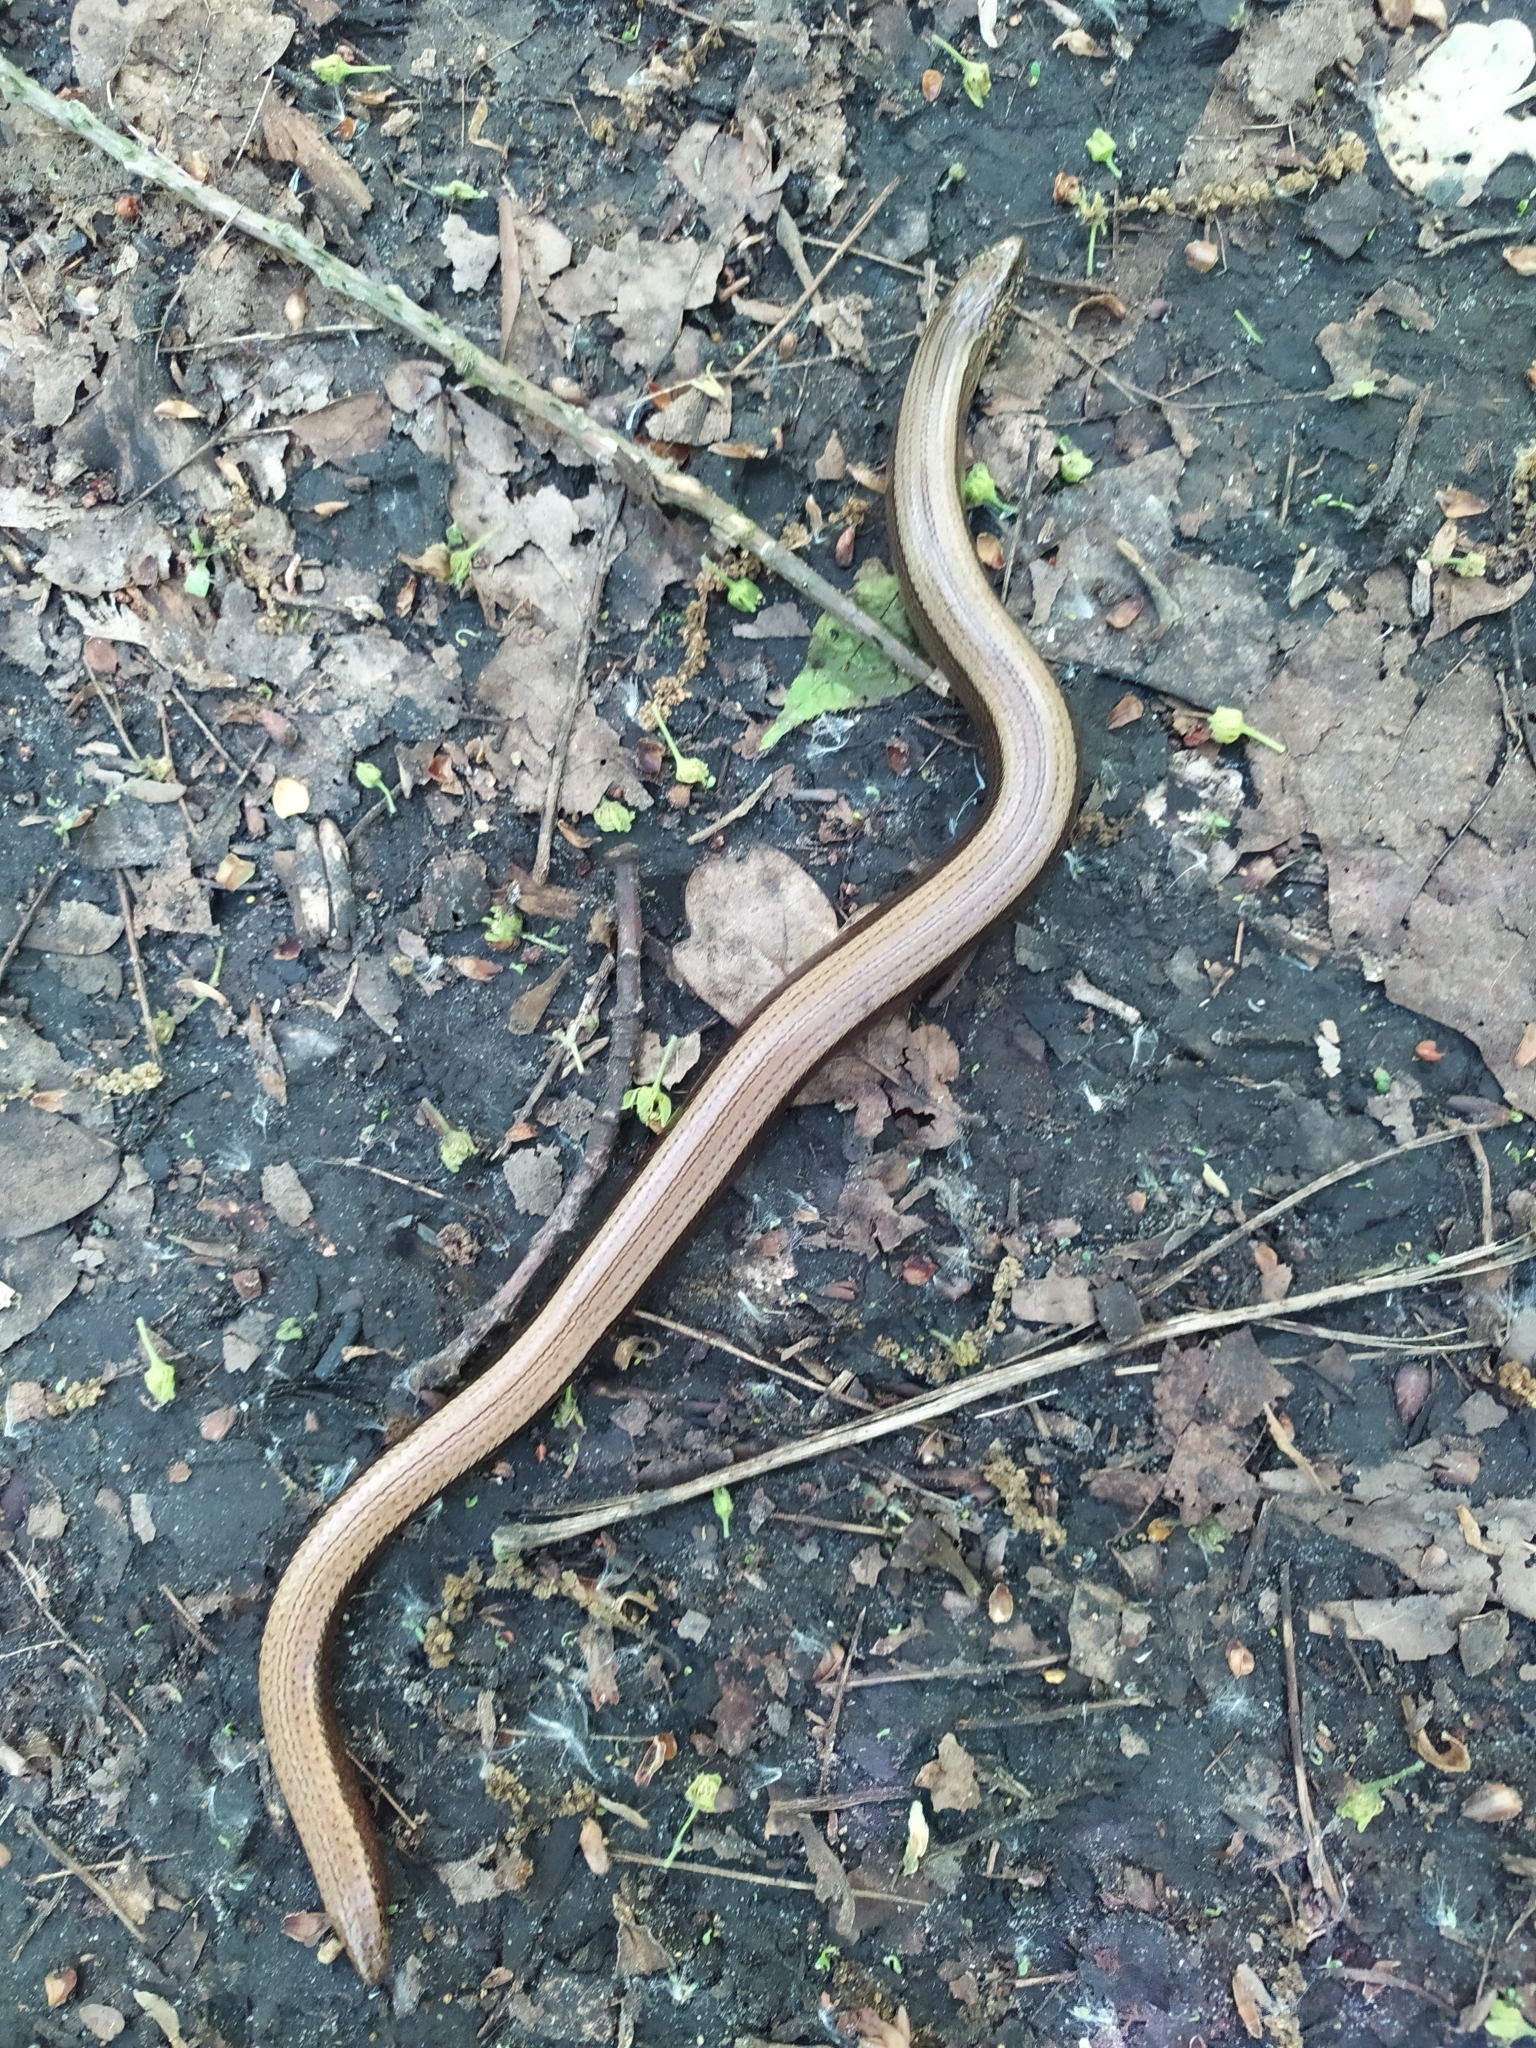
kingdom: Animalia
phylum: Chordata
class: Squamata
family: Anguidae
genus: Anguis
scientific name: Anguis colchica
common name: Slow worm
